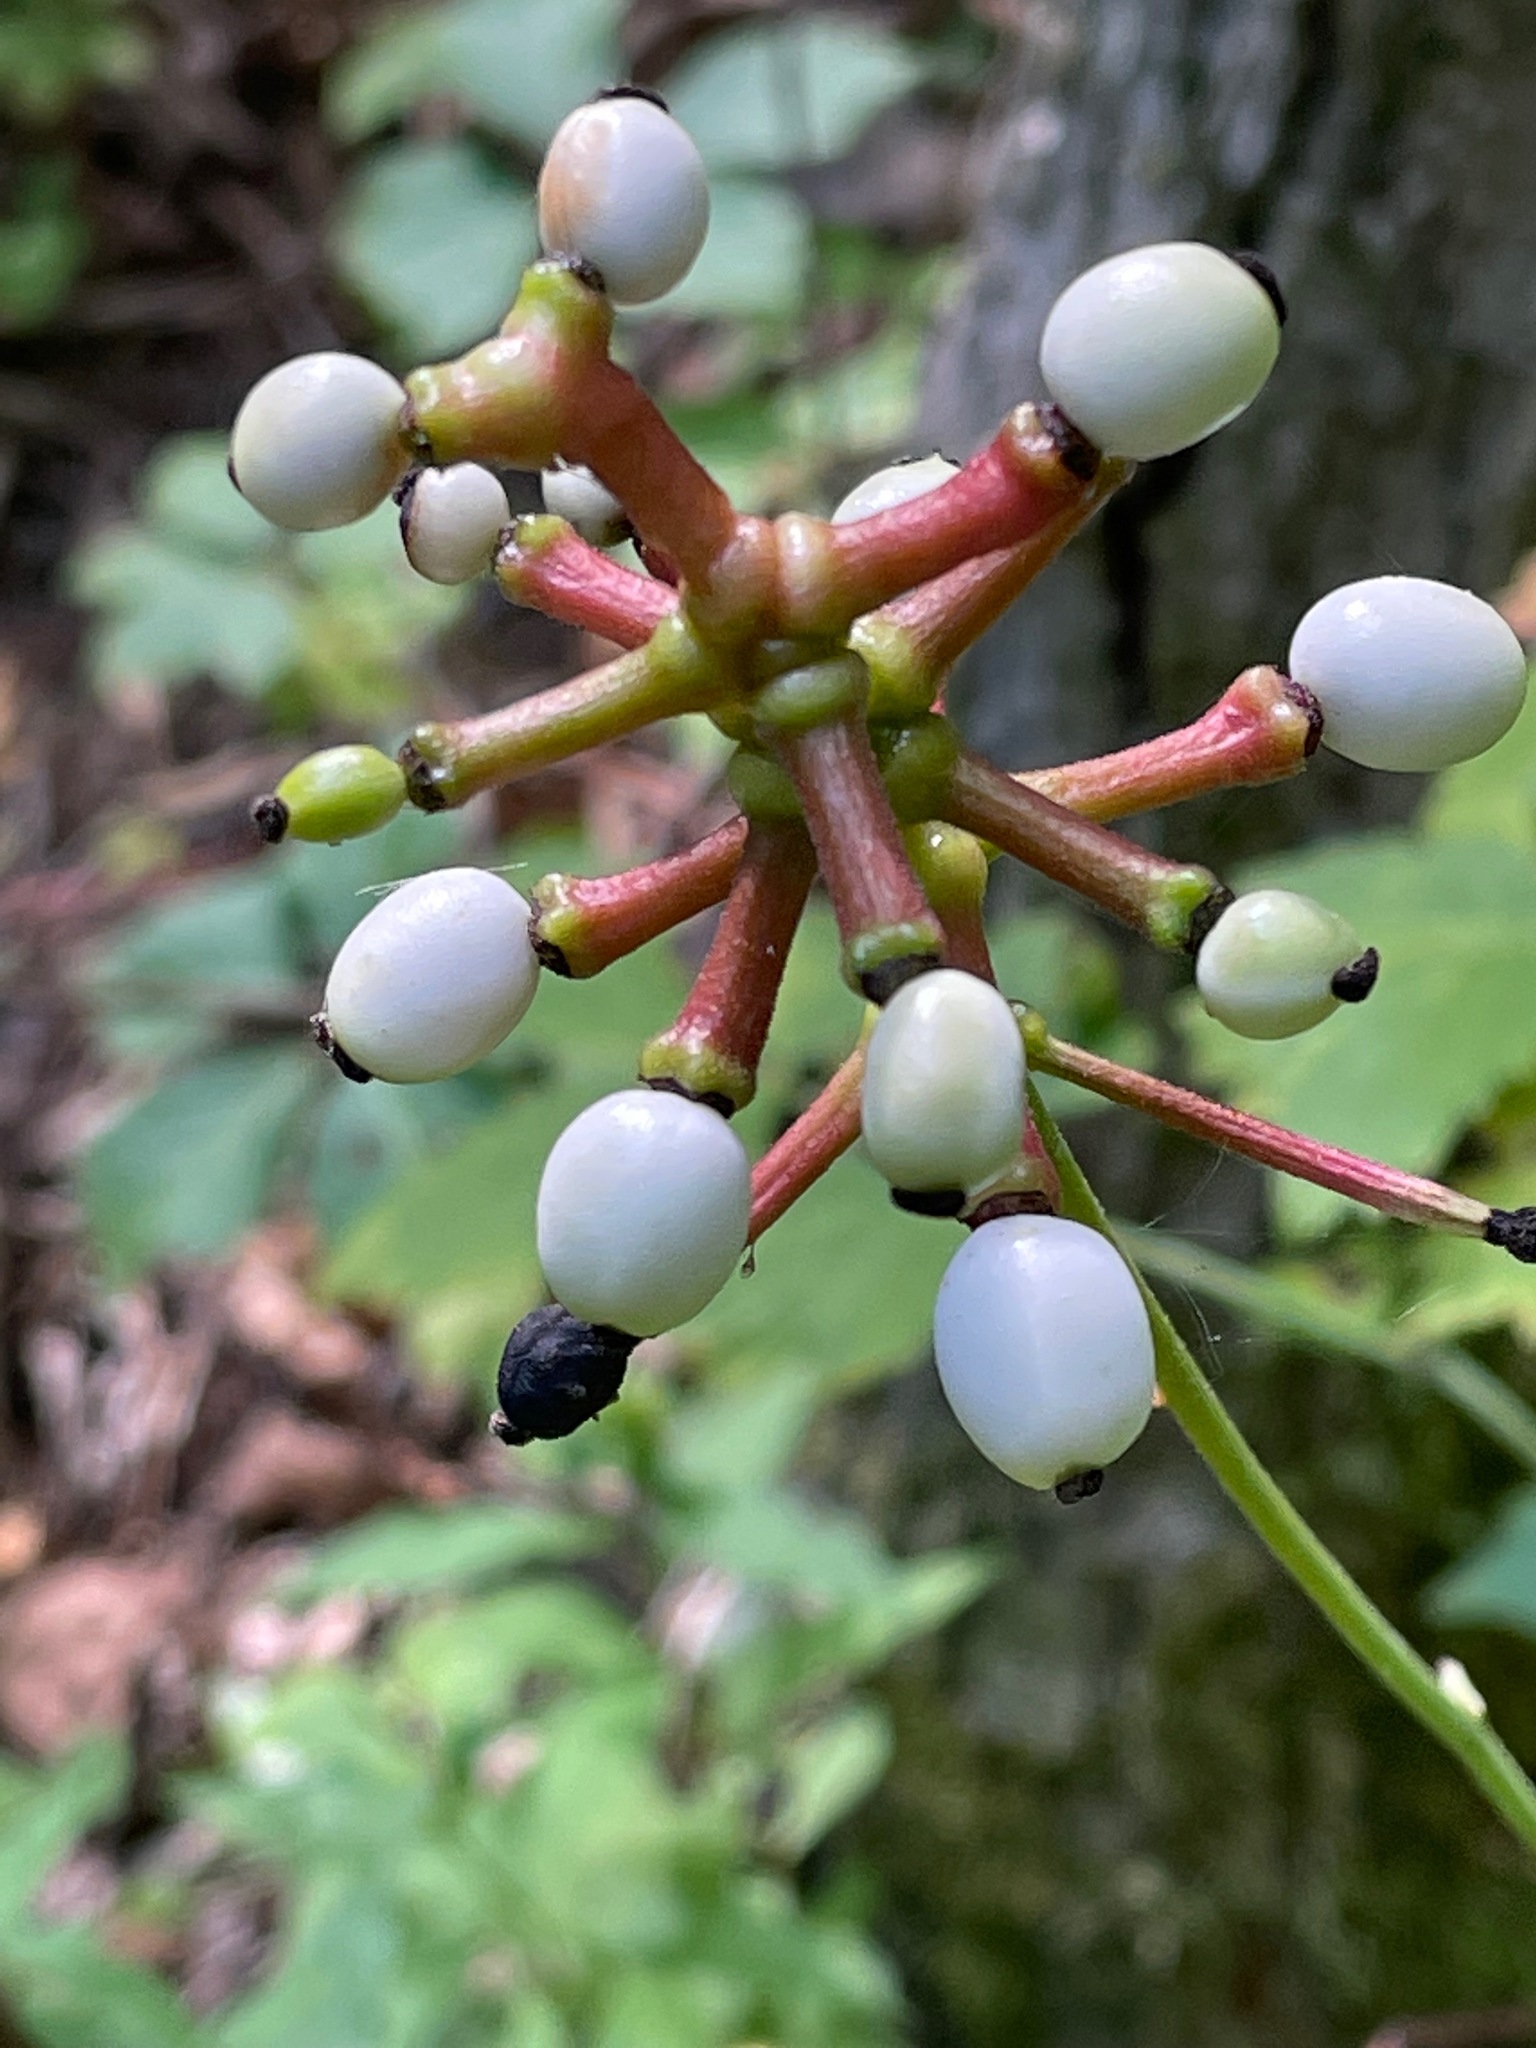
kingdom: Plantae
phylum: Tracheophyta
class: Magnoliopsida
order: Ranunculales
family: Ranunculaceae
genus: Actaea
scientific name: Actaea pachypoda
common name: Doll's-eyes
